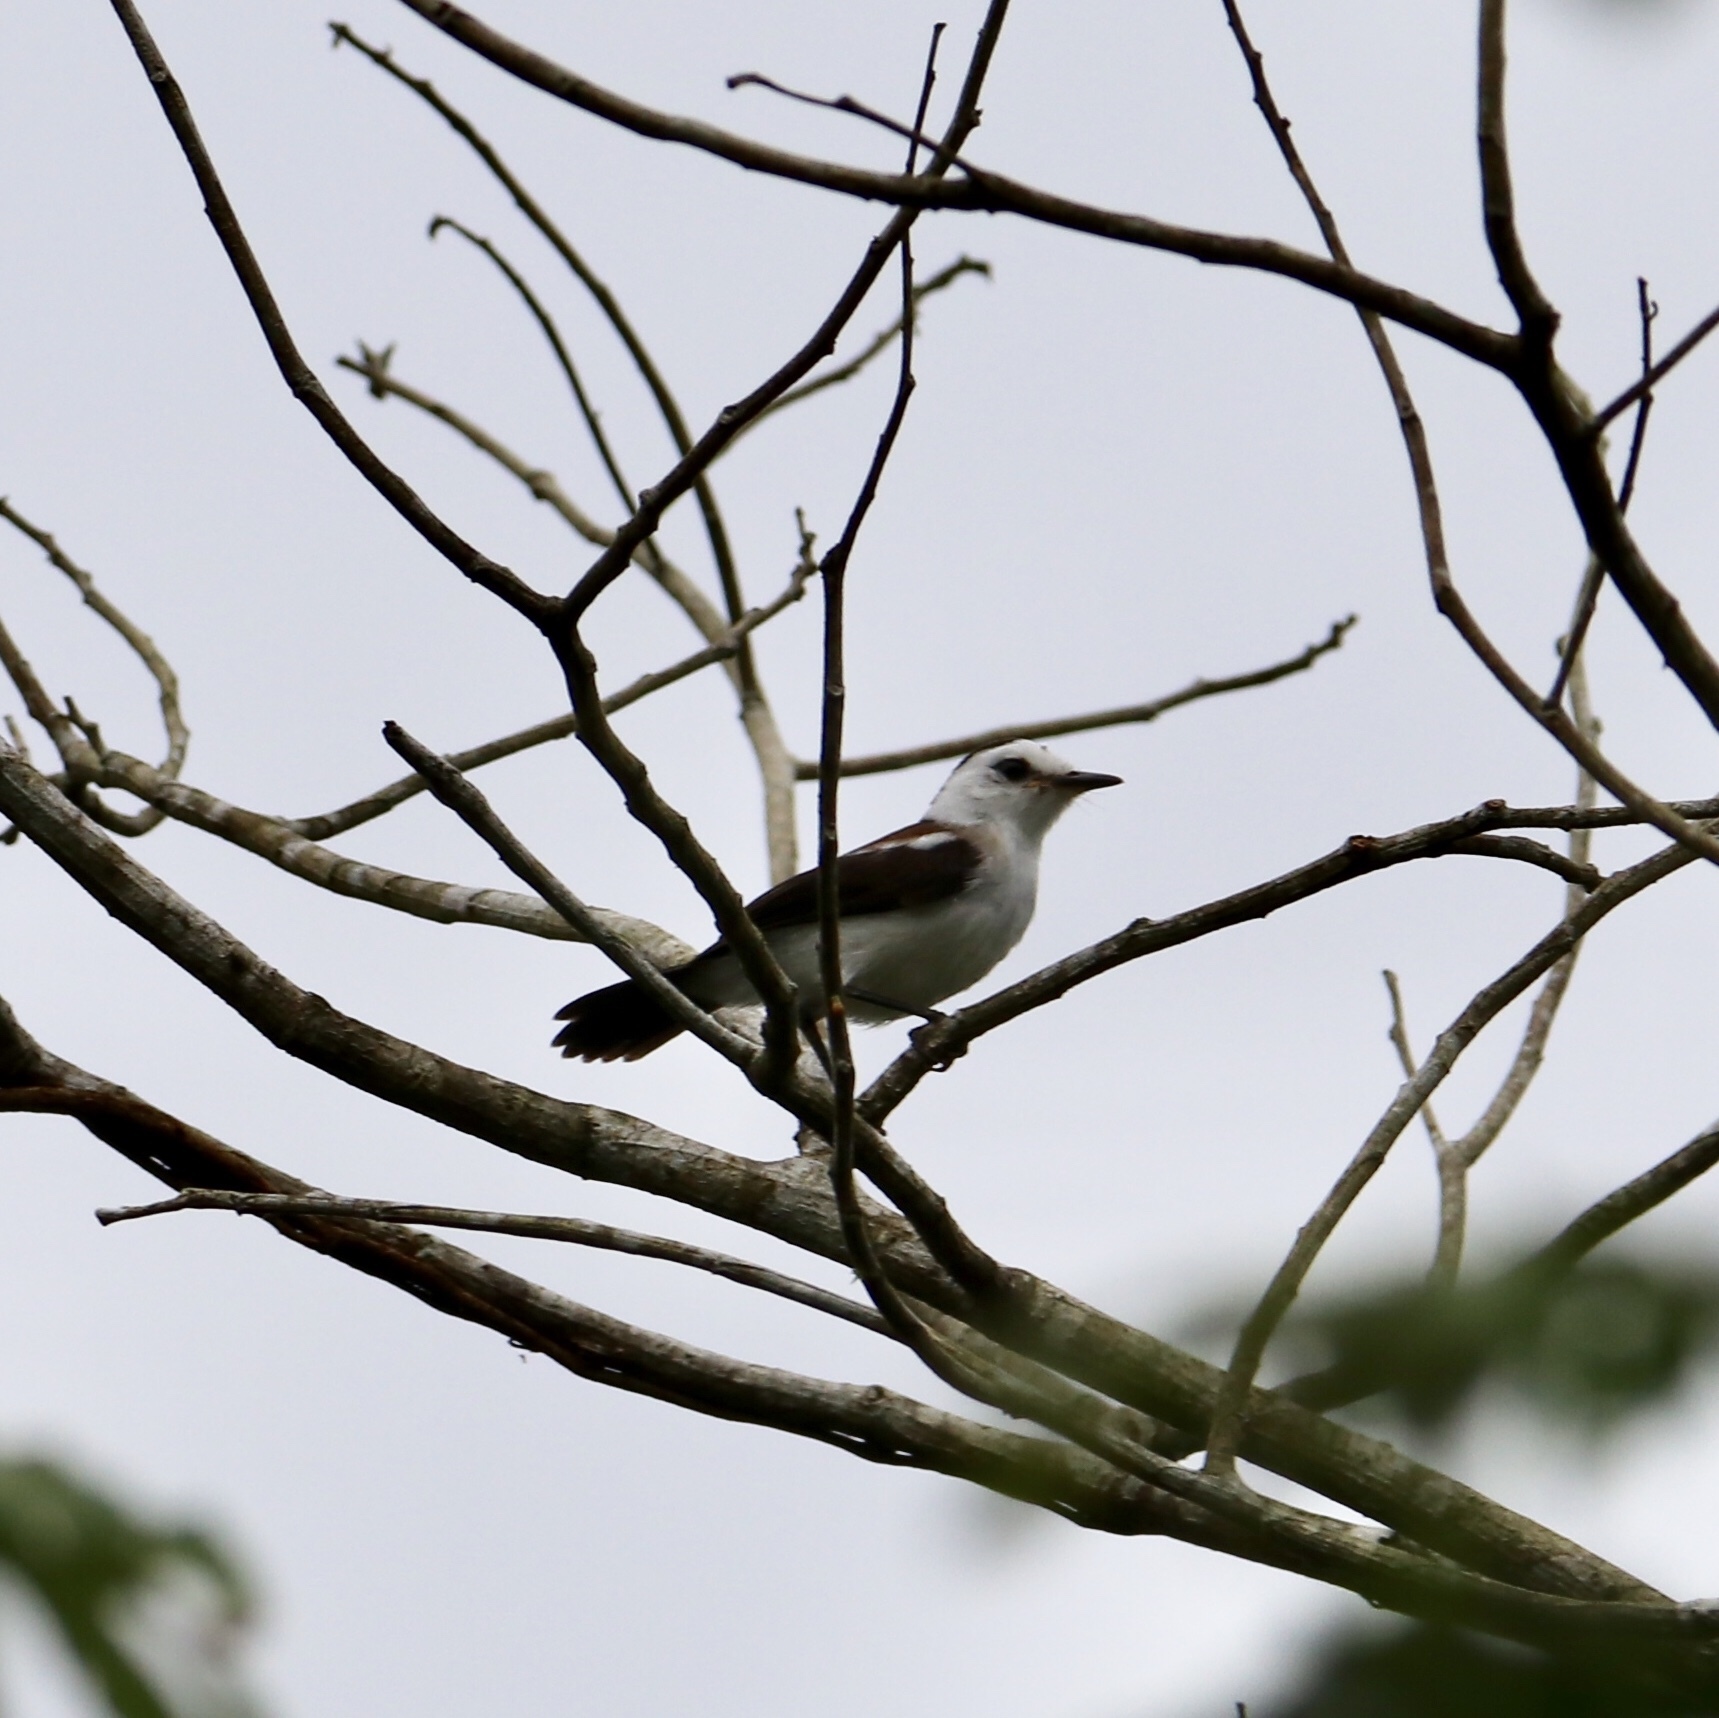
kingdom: Animalia
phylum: Chordata
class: Aves
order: Passeriformes
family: Tyrannidae
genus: Fluvicola
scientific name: Fluvicola pica
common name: Pied water-tyrant
